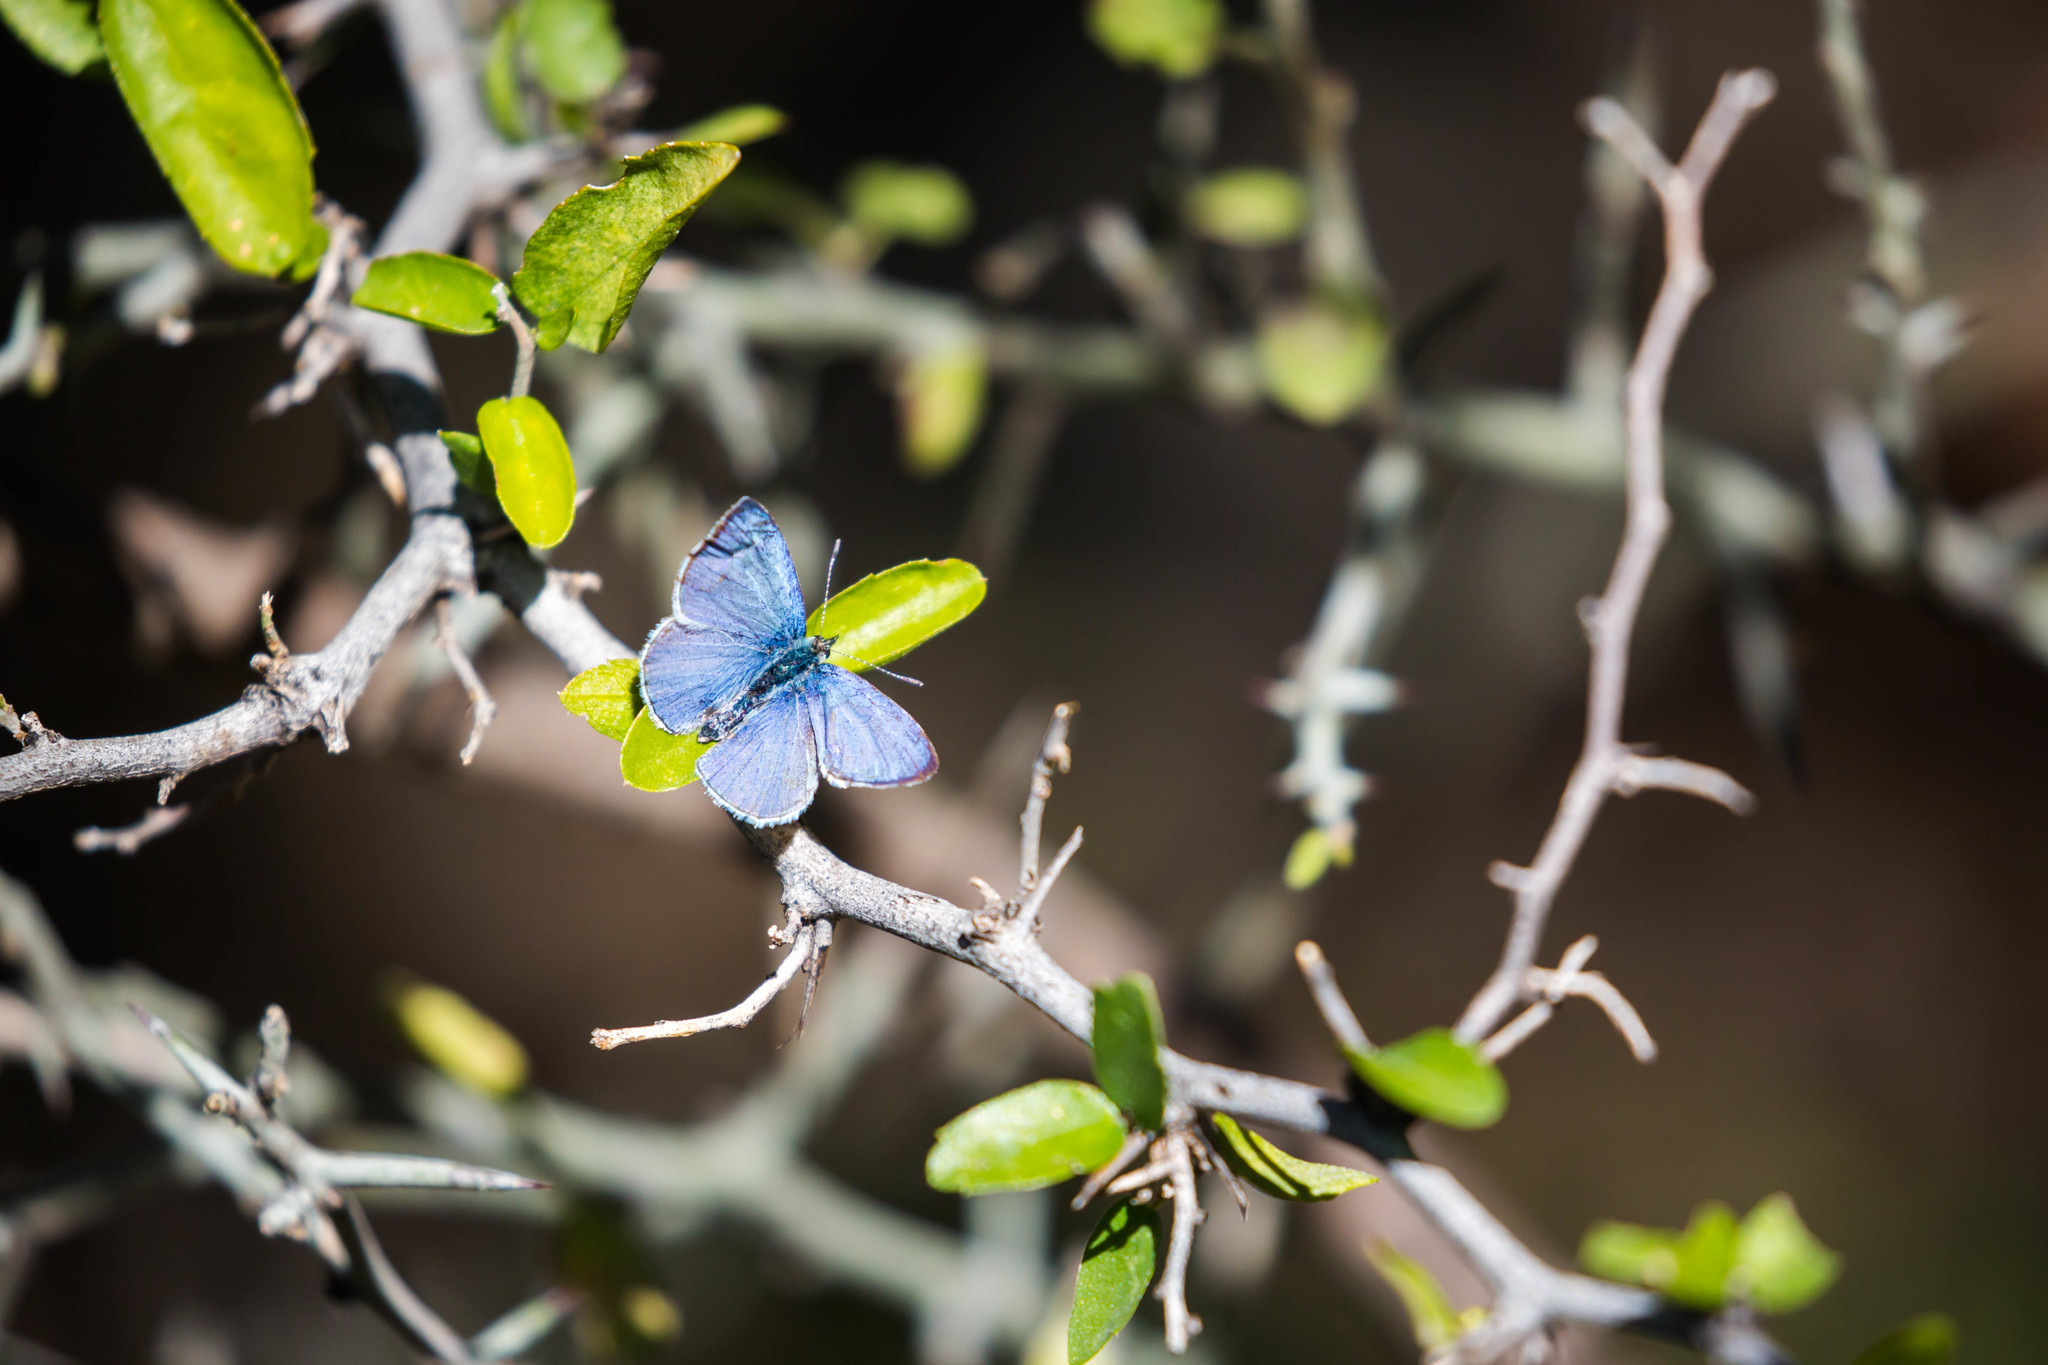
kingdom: Animalia
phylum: Arthropoda
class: Insecta
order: Lepidoptera
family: Lycaenidae
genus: Celastrina
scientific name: Celastrina ladon
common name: Spring azure
